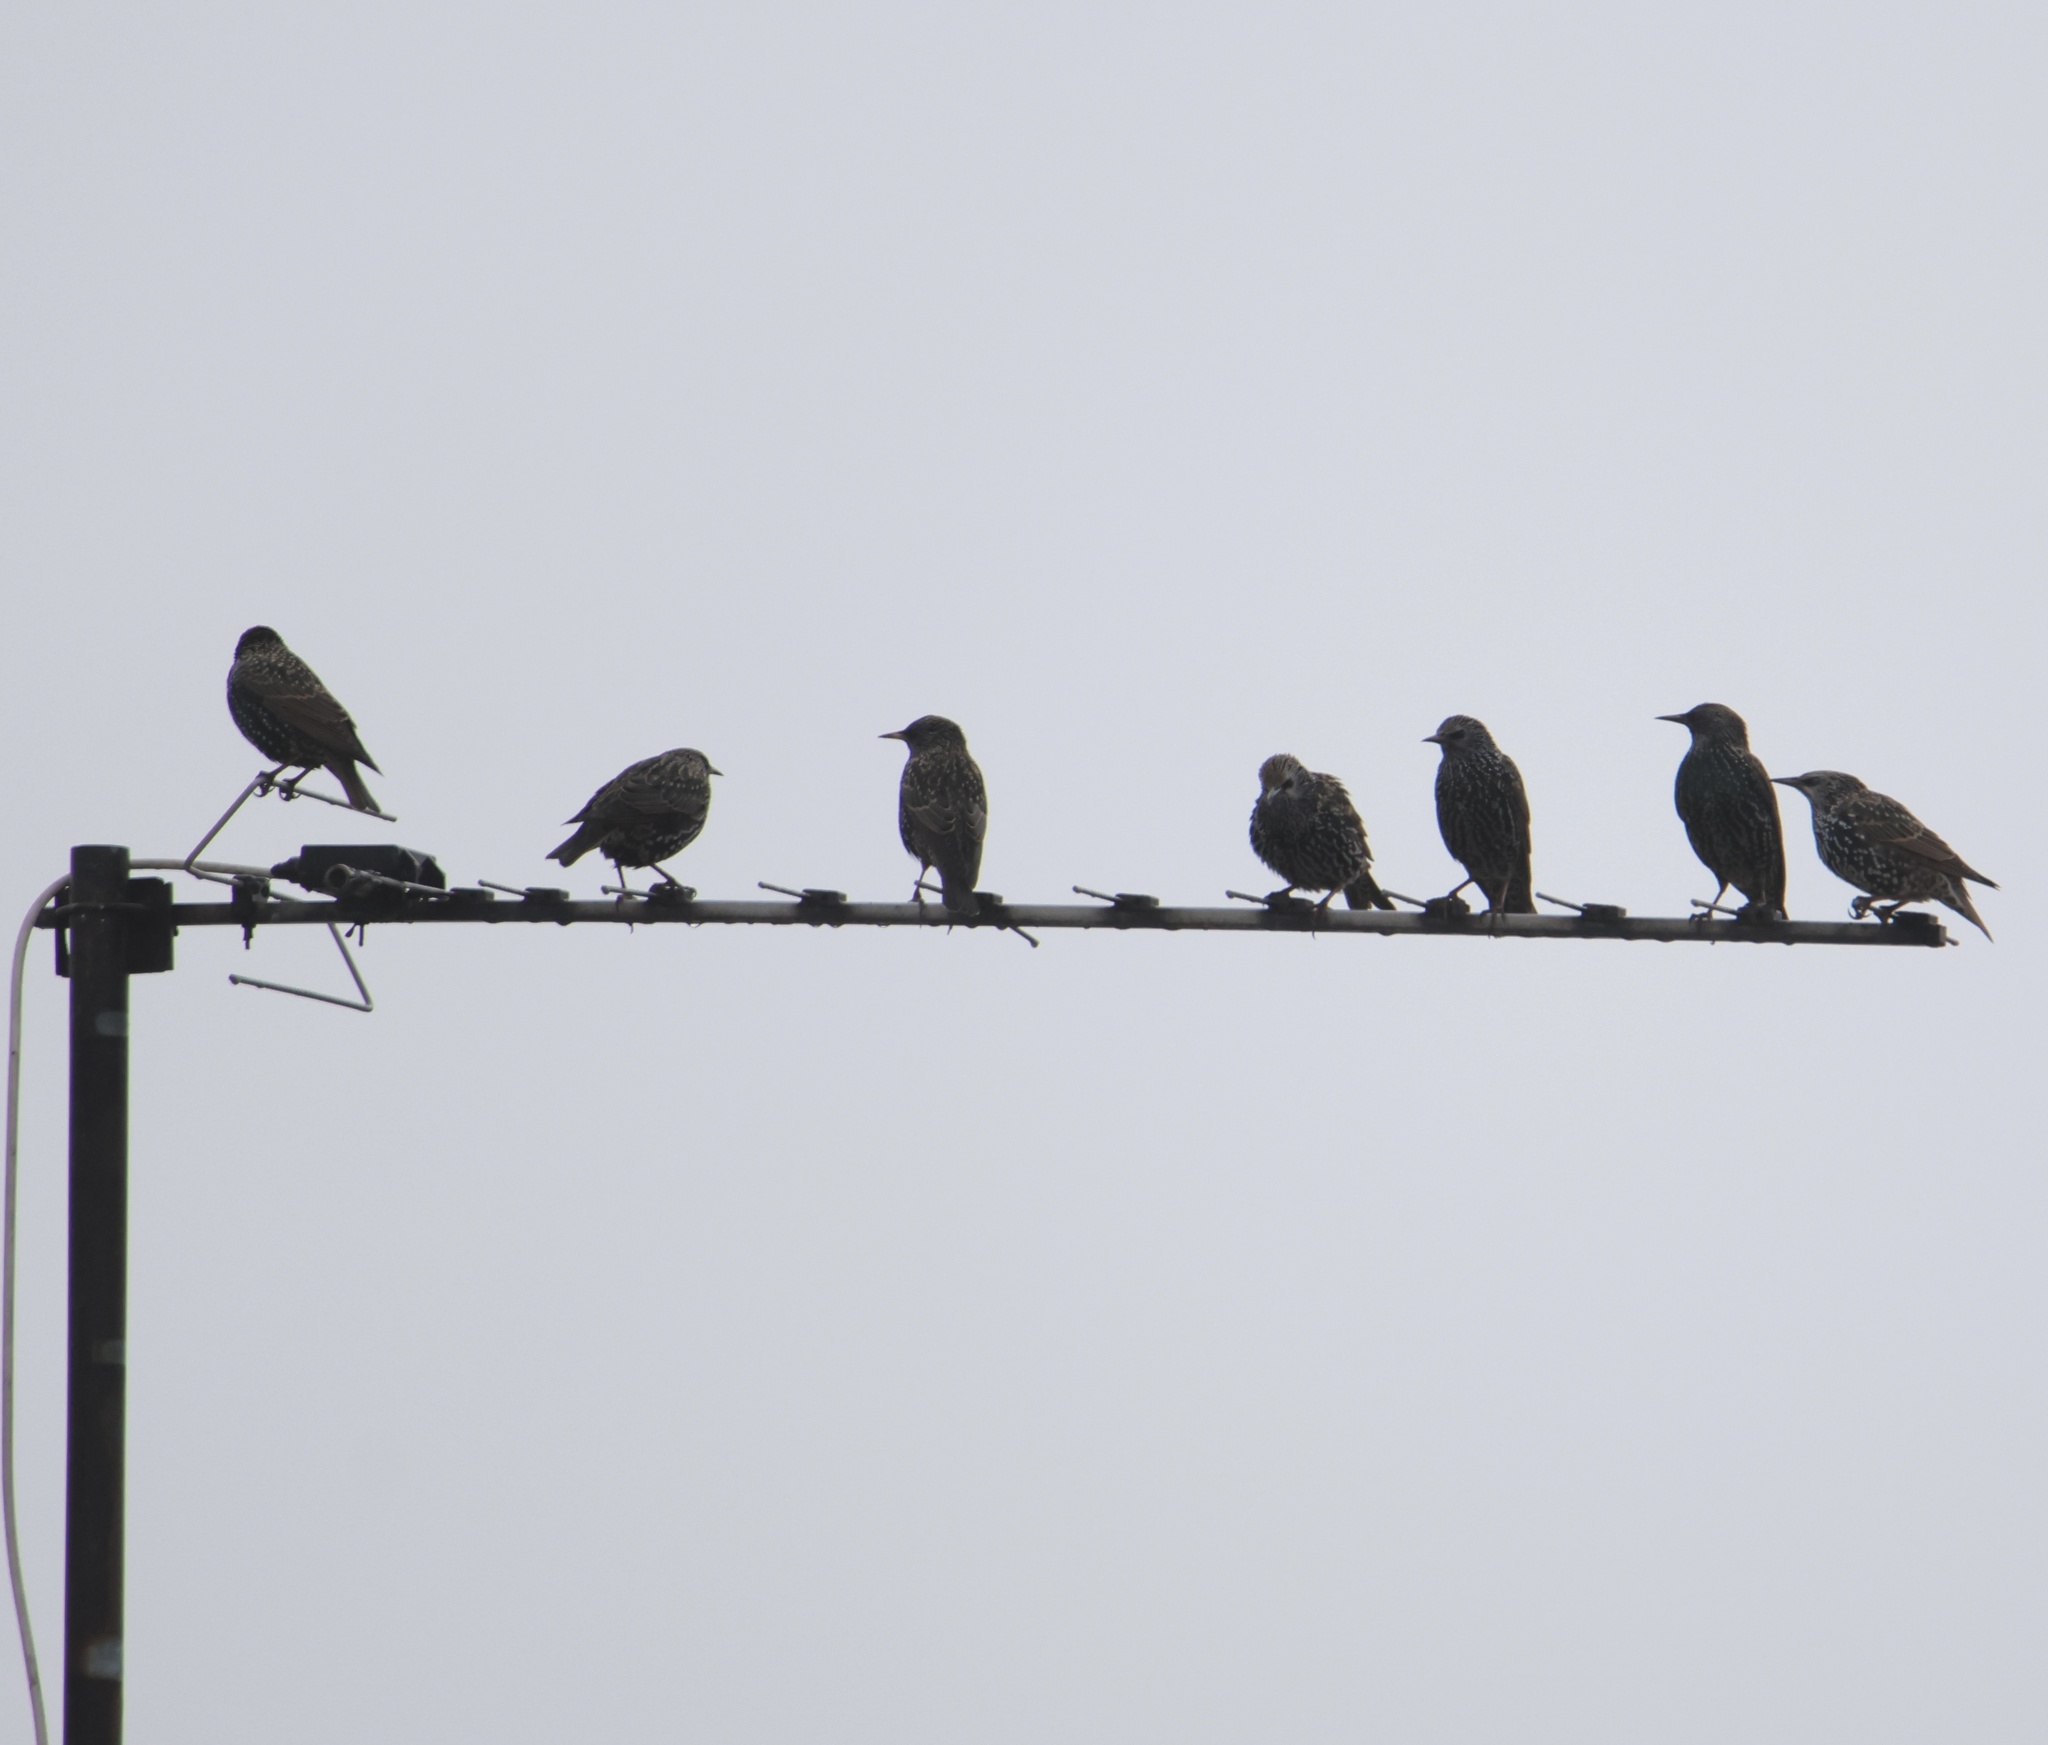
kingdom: Animalia
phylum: Chordata
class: Aves
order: Passeriformes
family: Sturnidae
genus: Sturnus
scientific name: Sturnus vulgaris
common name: Common starling
